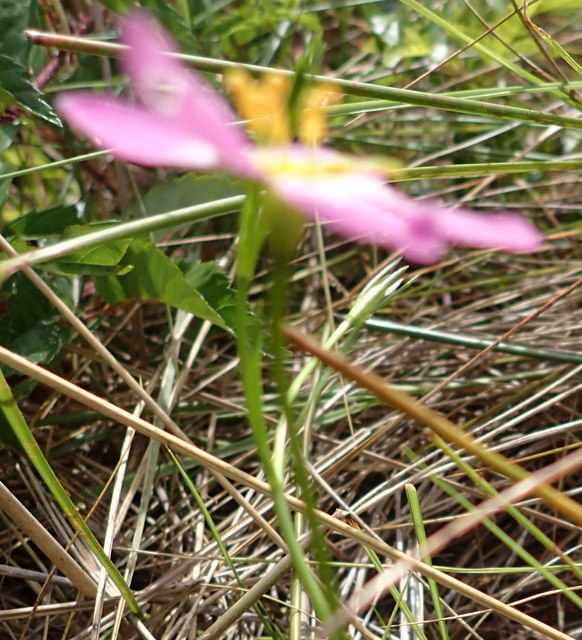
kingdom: Plantae
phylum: Tracheophyta
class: Magnoliopsida
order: Gentianales
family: Gentianaceae
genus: Sabatia
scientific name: Sabatia stellaris
